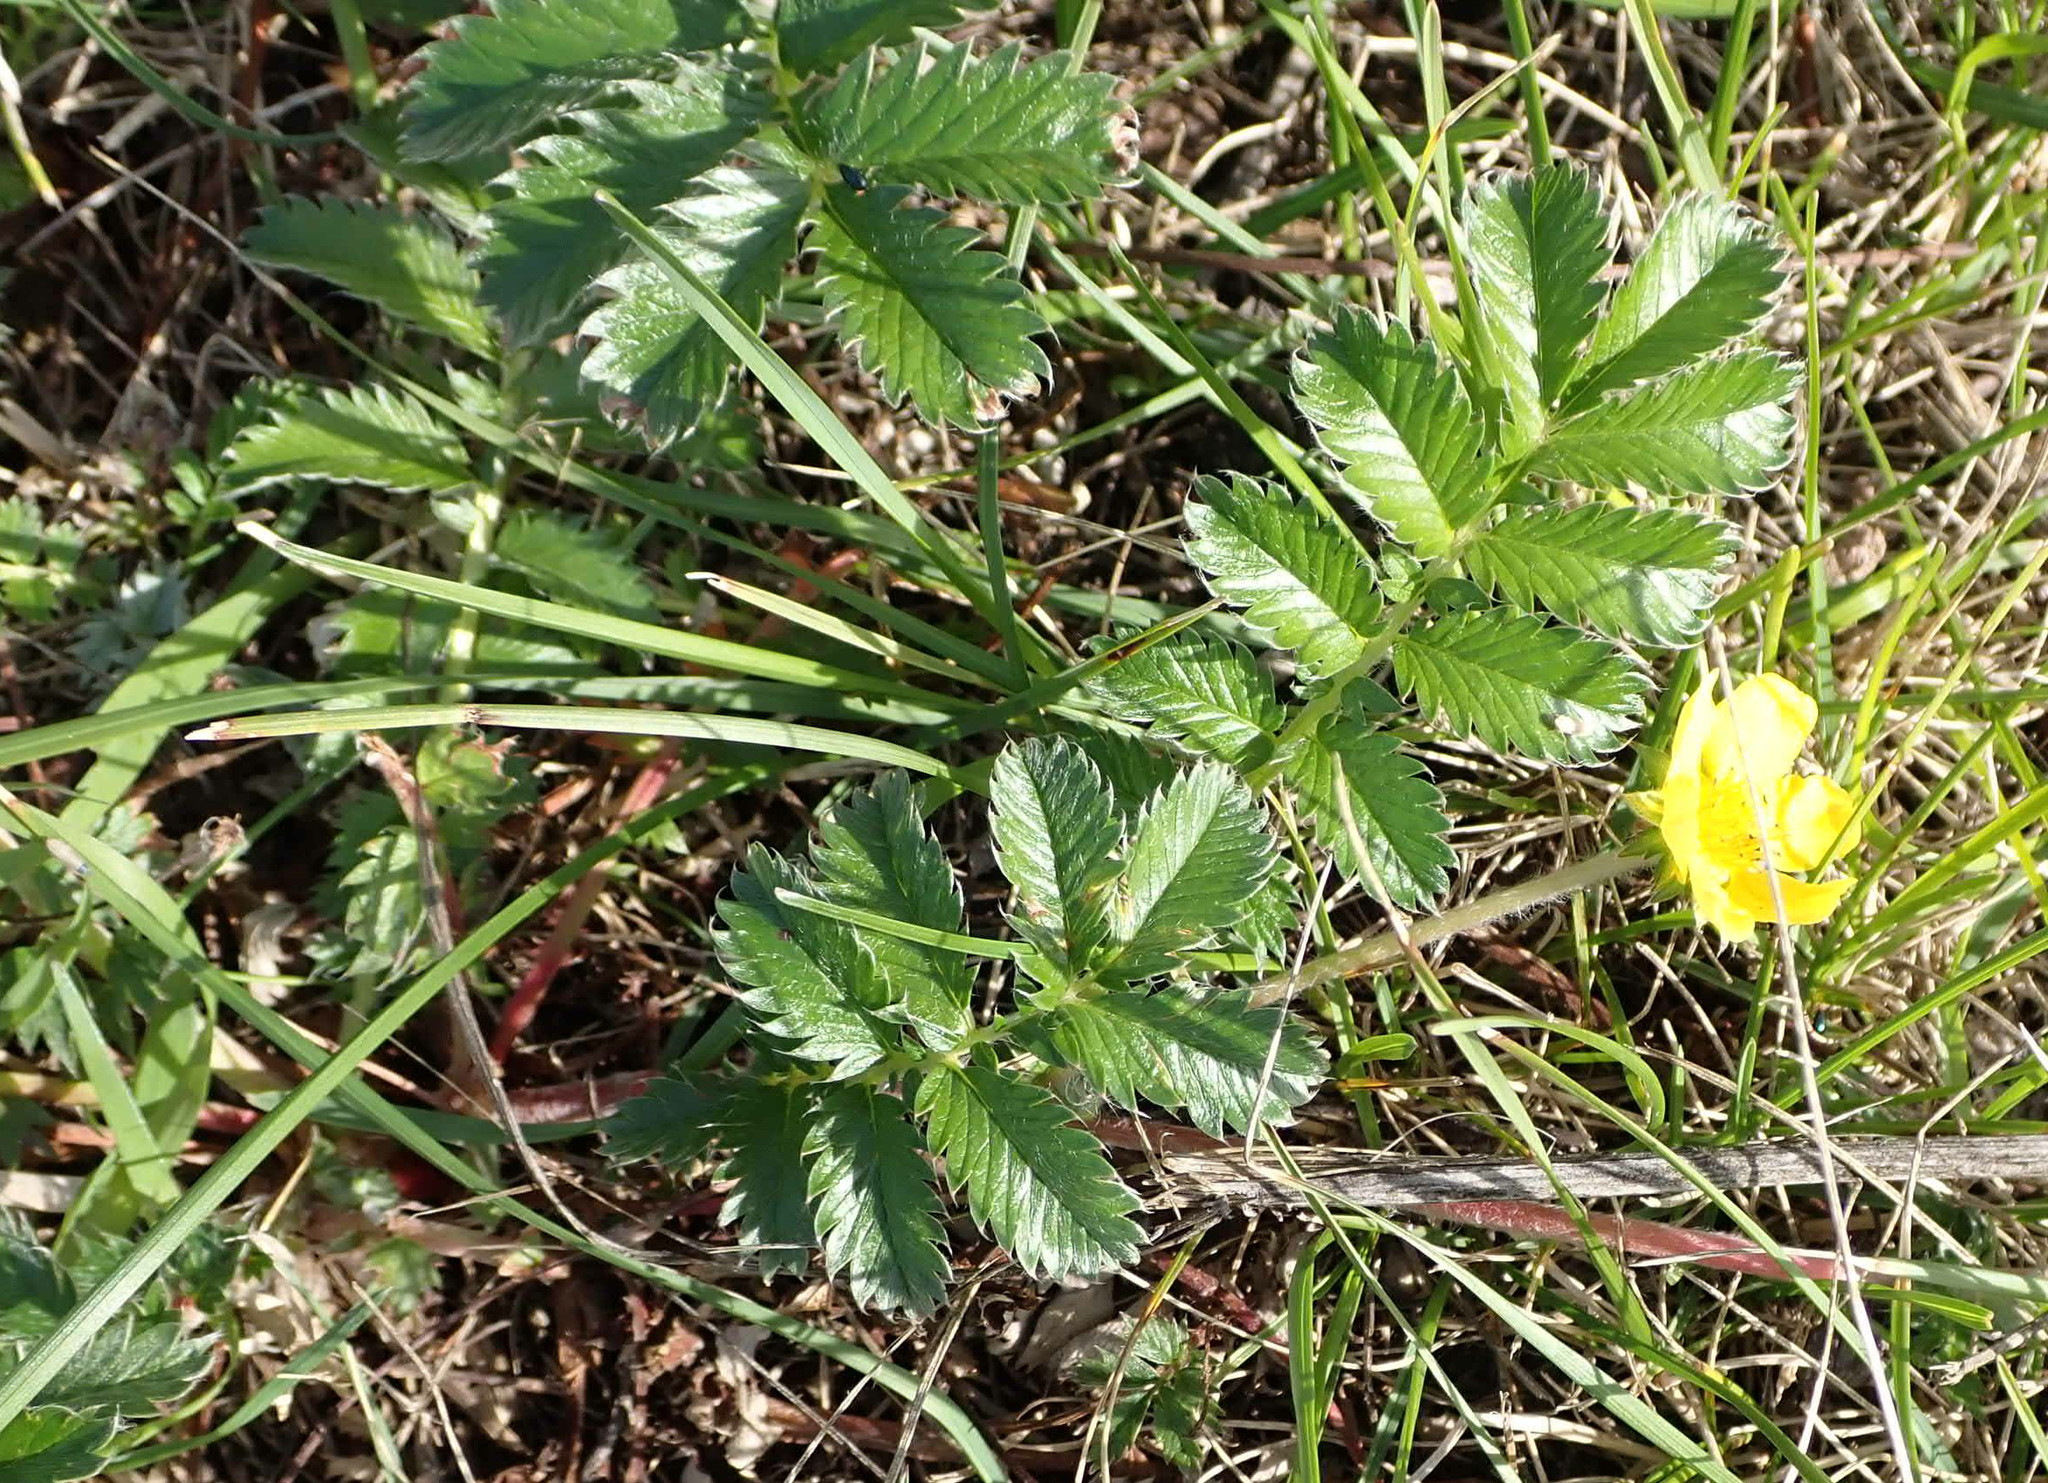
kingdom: Plantae
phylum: Tracheophyta
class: Magnoliopsida
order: Rosales
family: Rosaceae
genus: Argentina
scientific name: Argentina anserina
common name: Common silverweed
